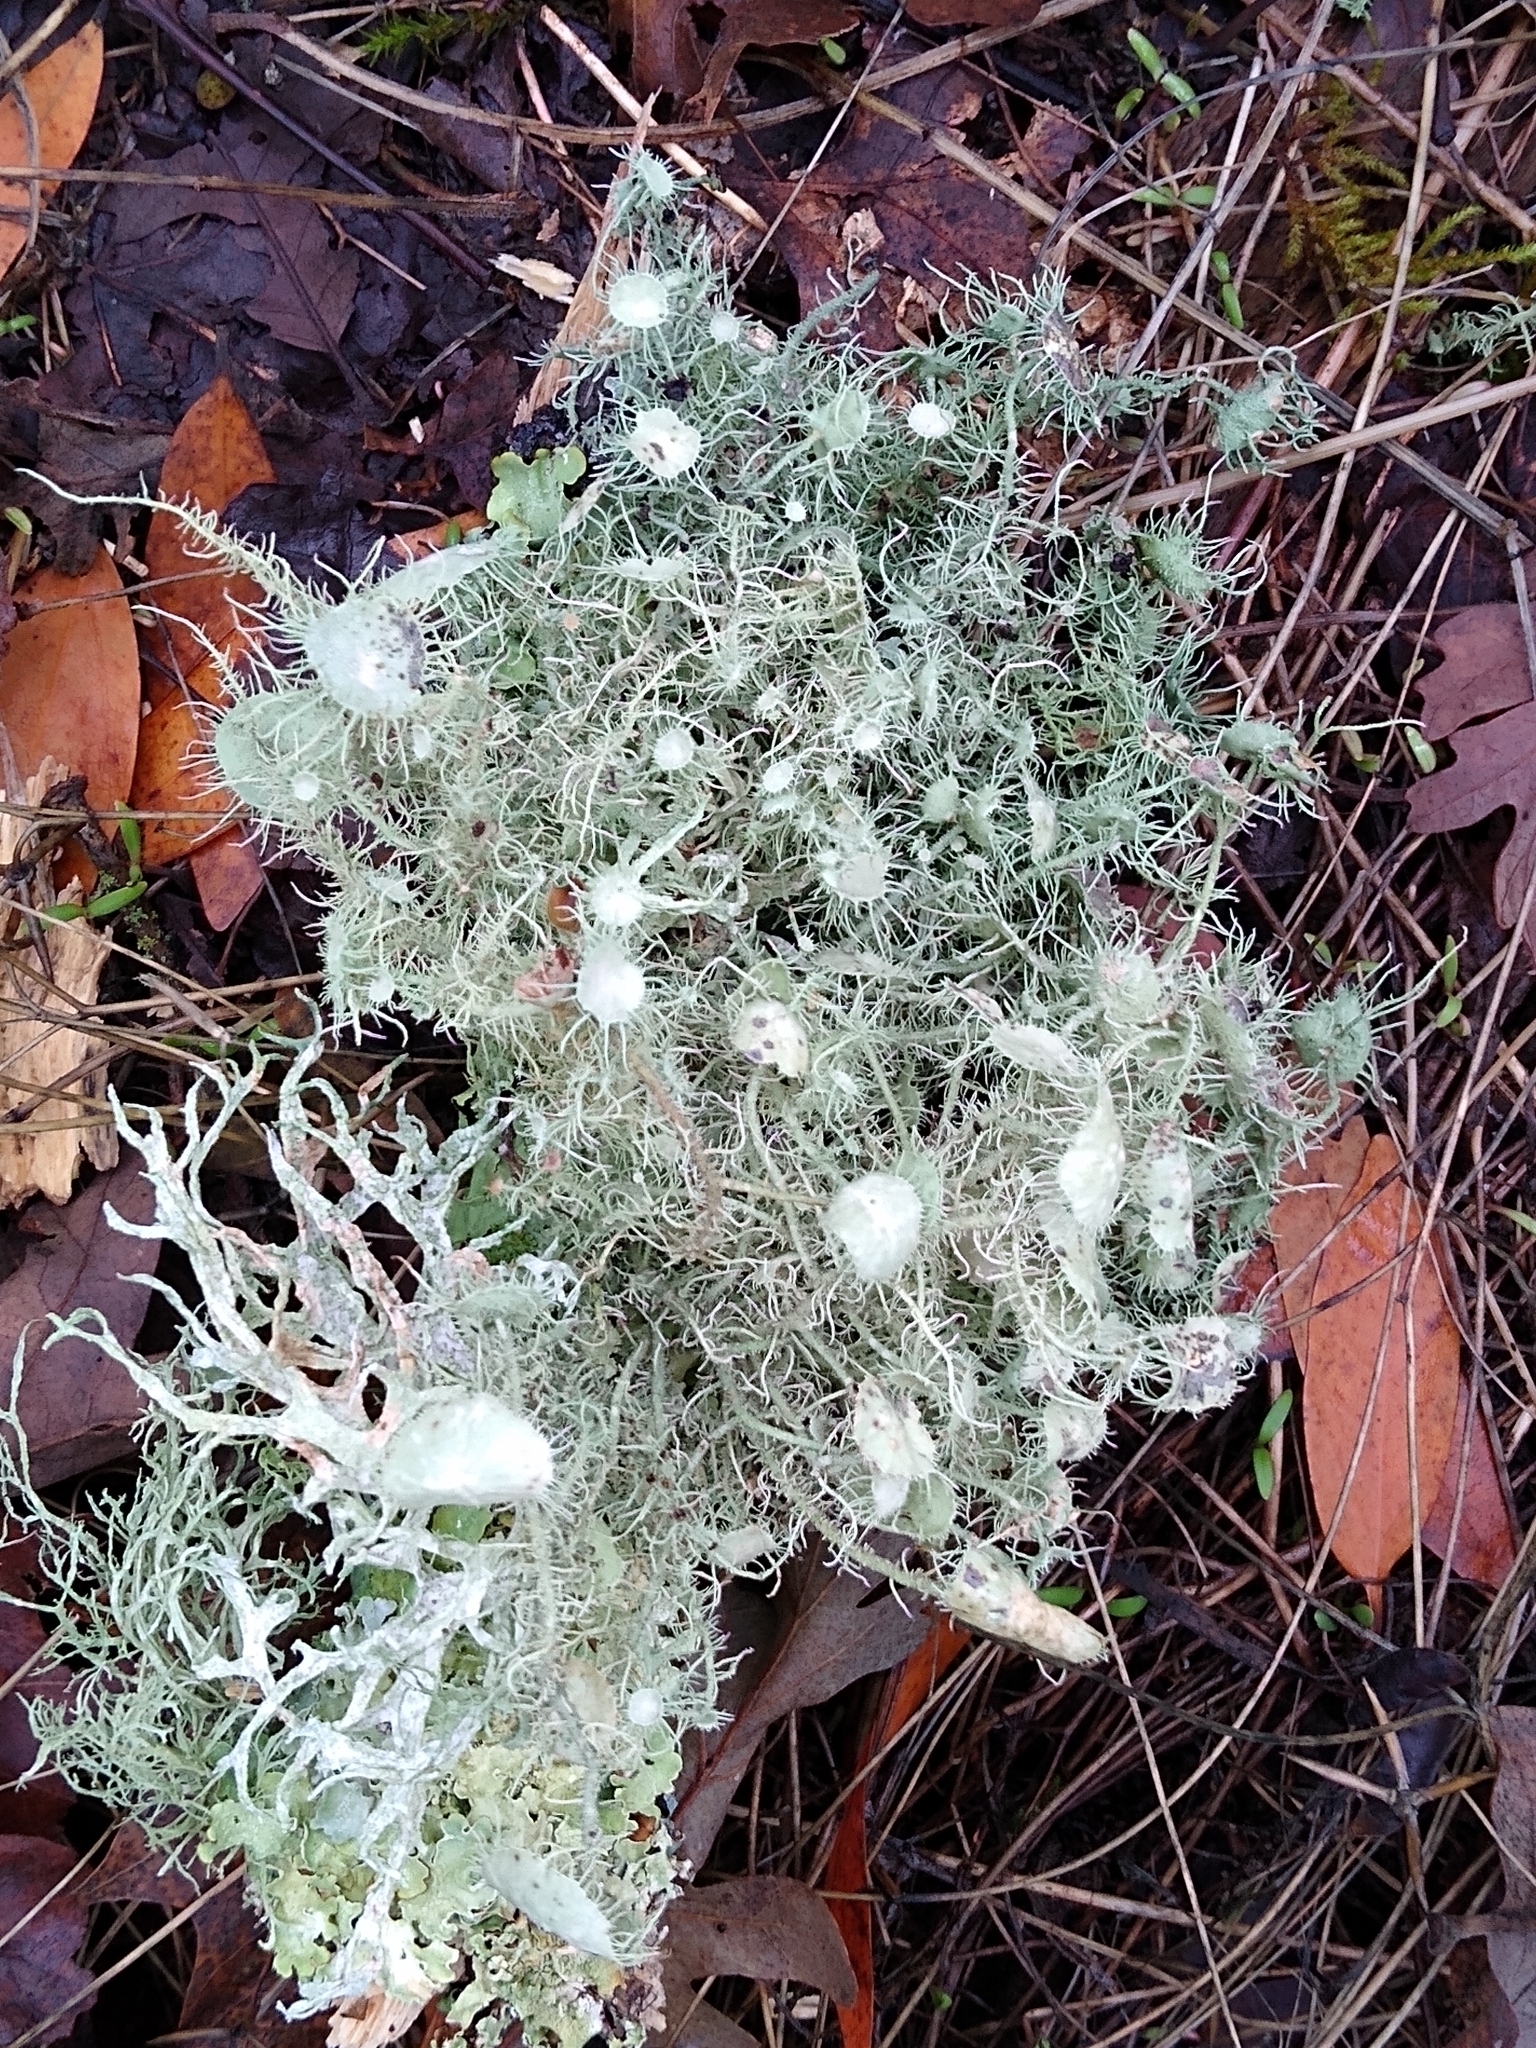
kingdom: Fungi
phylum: Ascomycota
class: Lecanoromycetes
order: Lecanorales
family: Parmeliaceae
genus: Usnea
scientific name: Usnea intermedia
